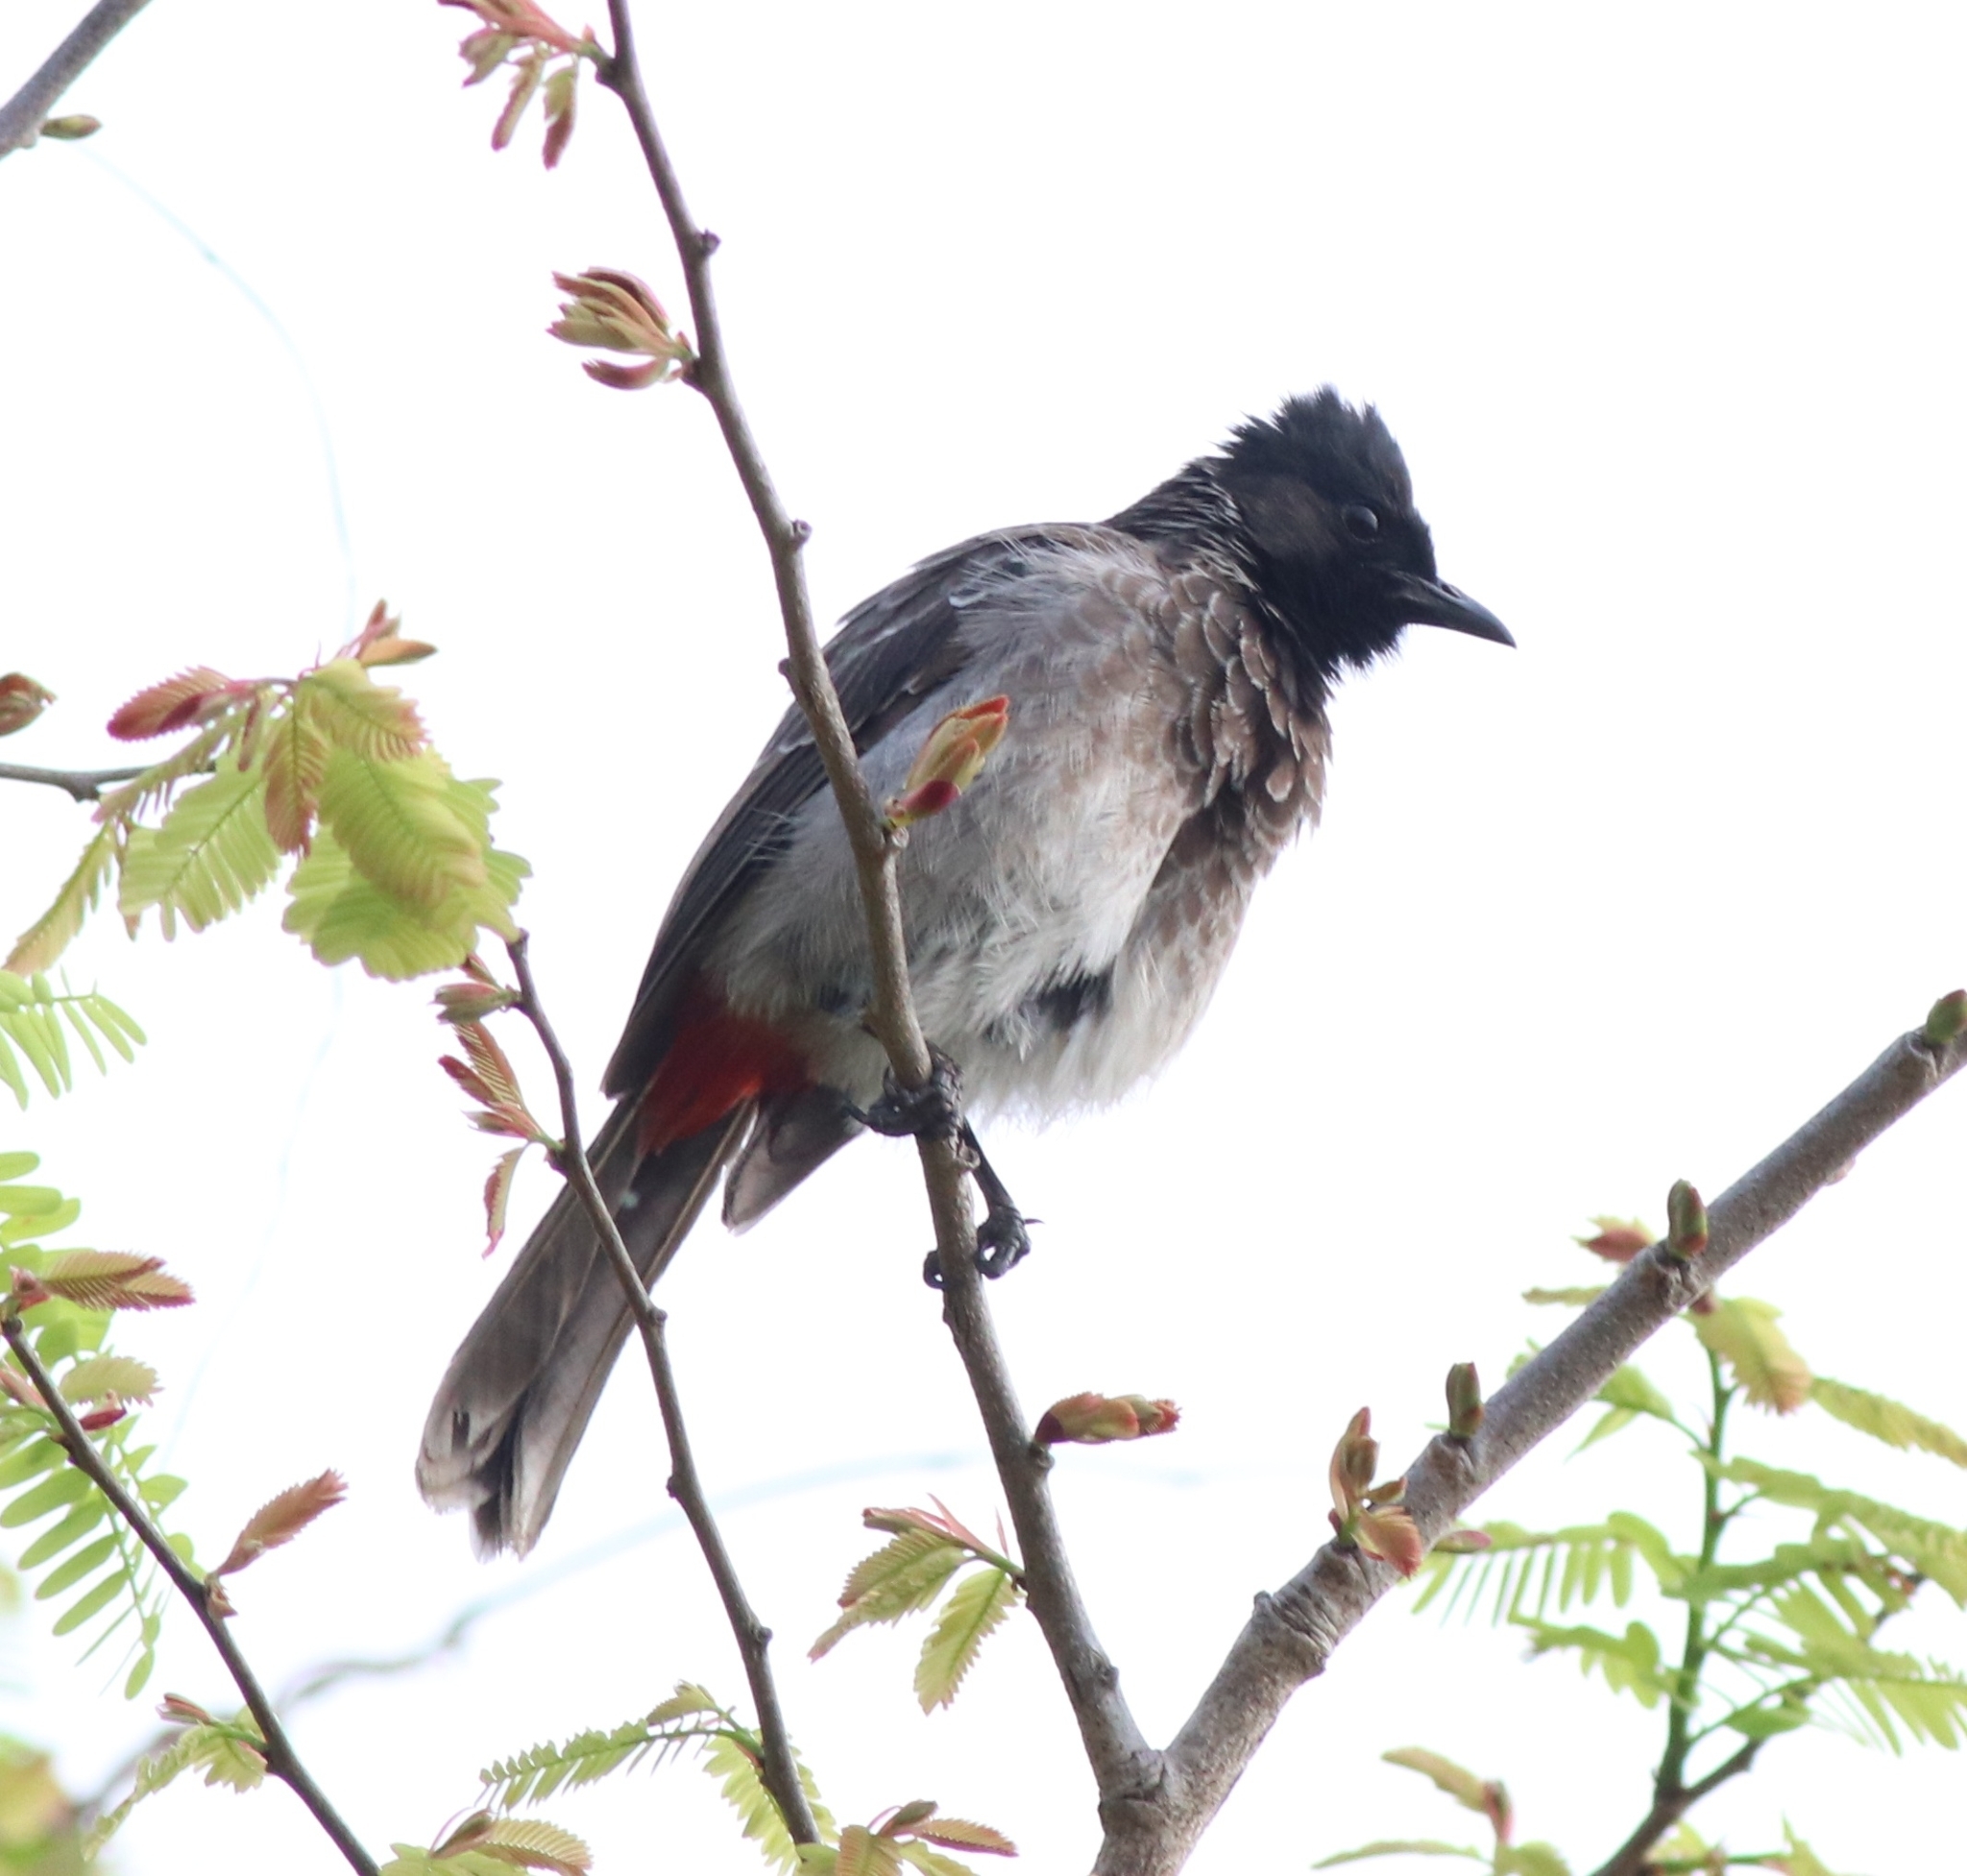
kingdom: Animalia
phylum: Chordata
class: Aves
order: Passeriformes
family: Pycnonotidae
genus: Pycnonotus
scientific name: Pycnonotus cafer
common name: Red-vented bulbul
